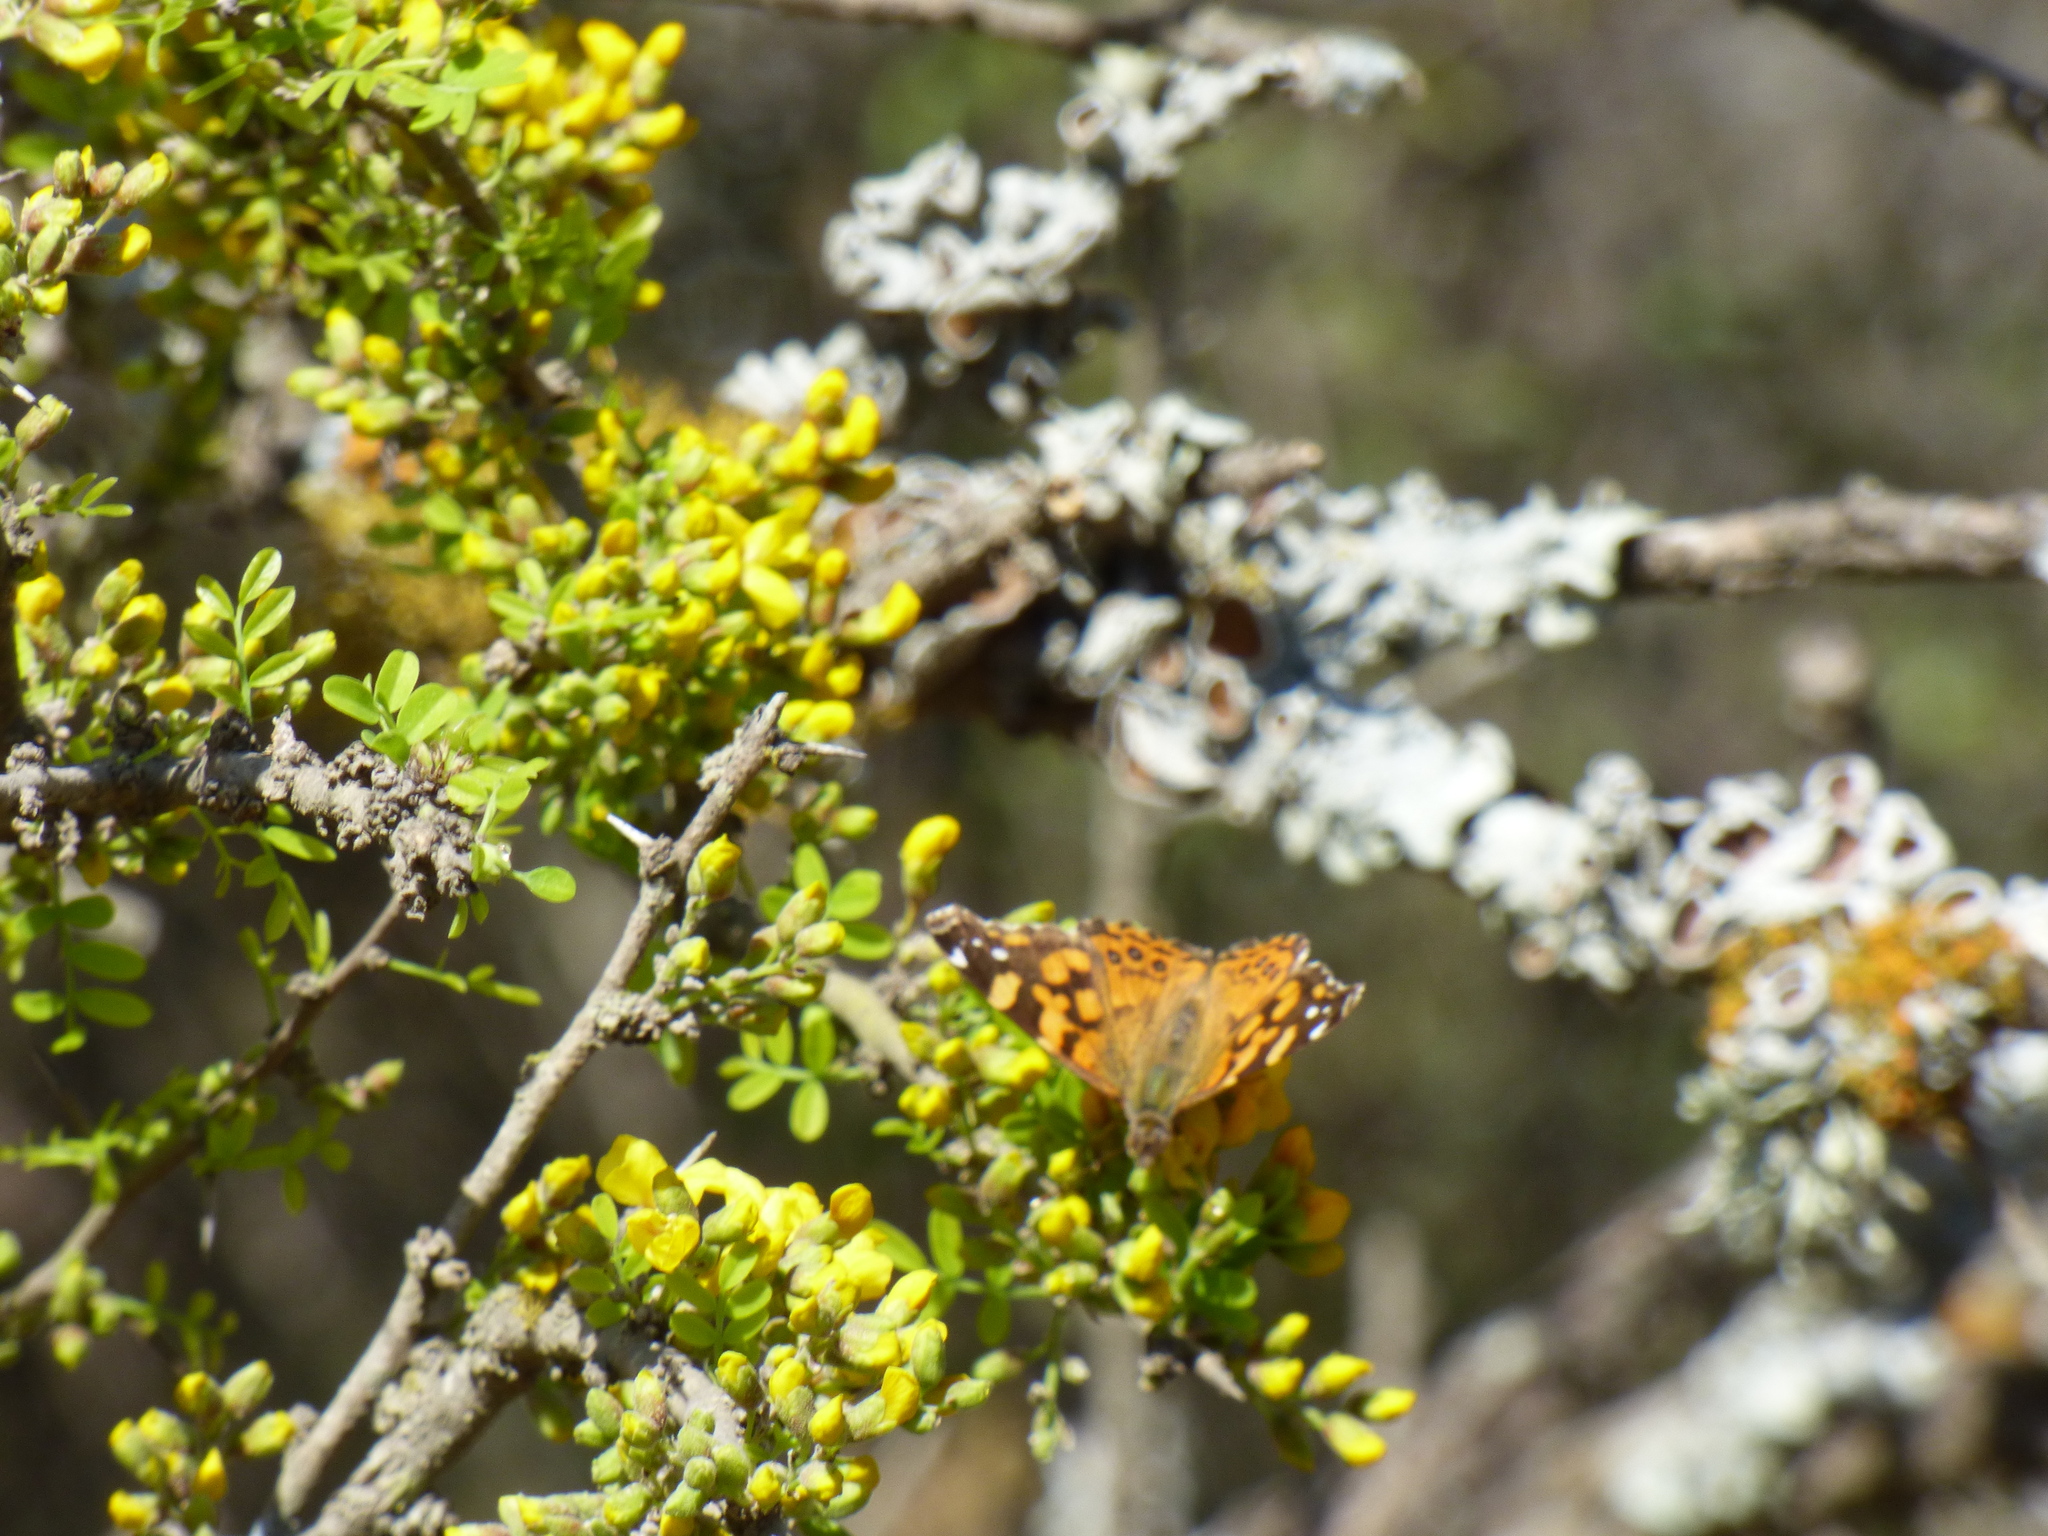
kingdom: Animalia
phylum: Arthropoda
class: Insecta
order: Lepidoptera
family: Nymphalidae
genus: Vanessa
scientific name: Vanessa carye
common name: Subtropical lady
